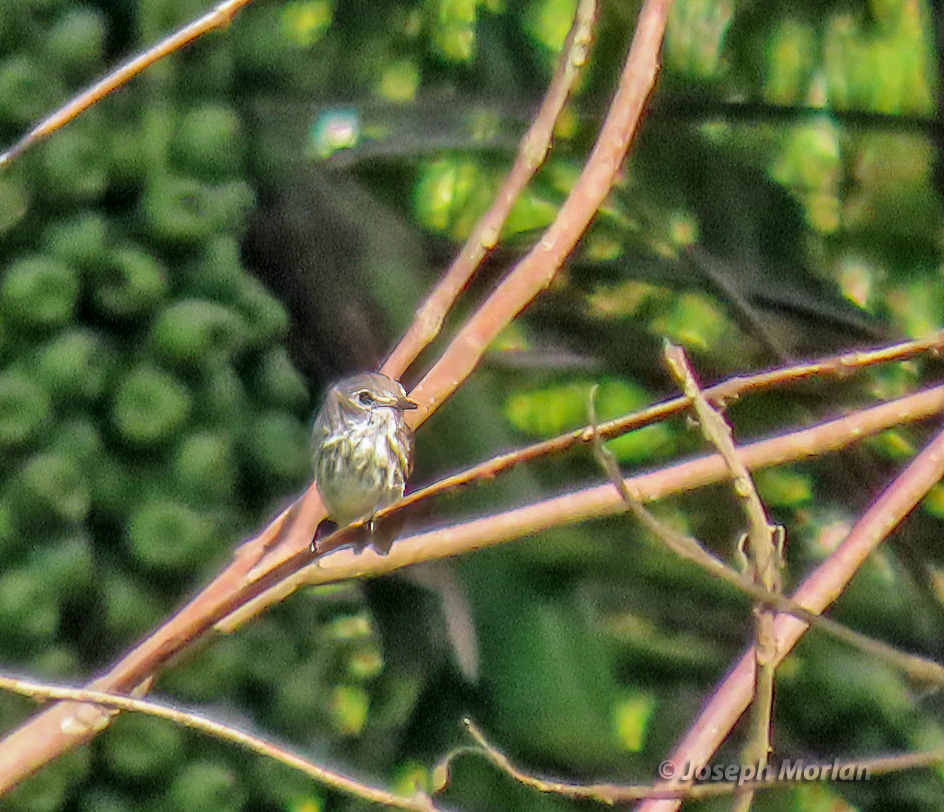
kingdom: Animalia
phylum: Chordata
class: Aves
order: Passeriformes
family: Muscicapidae
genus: Muscicapa
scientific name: Muscicapa griseisticta
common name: Gray-streaked flycatcher
